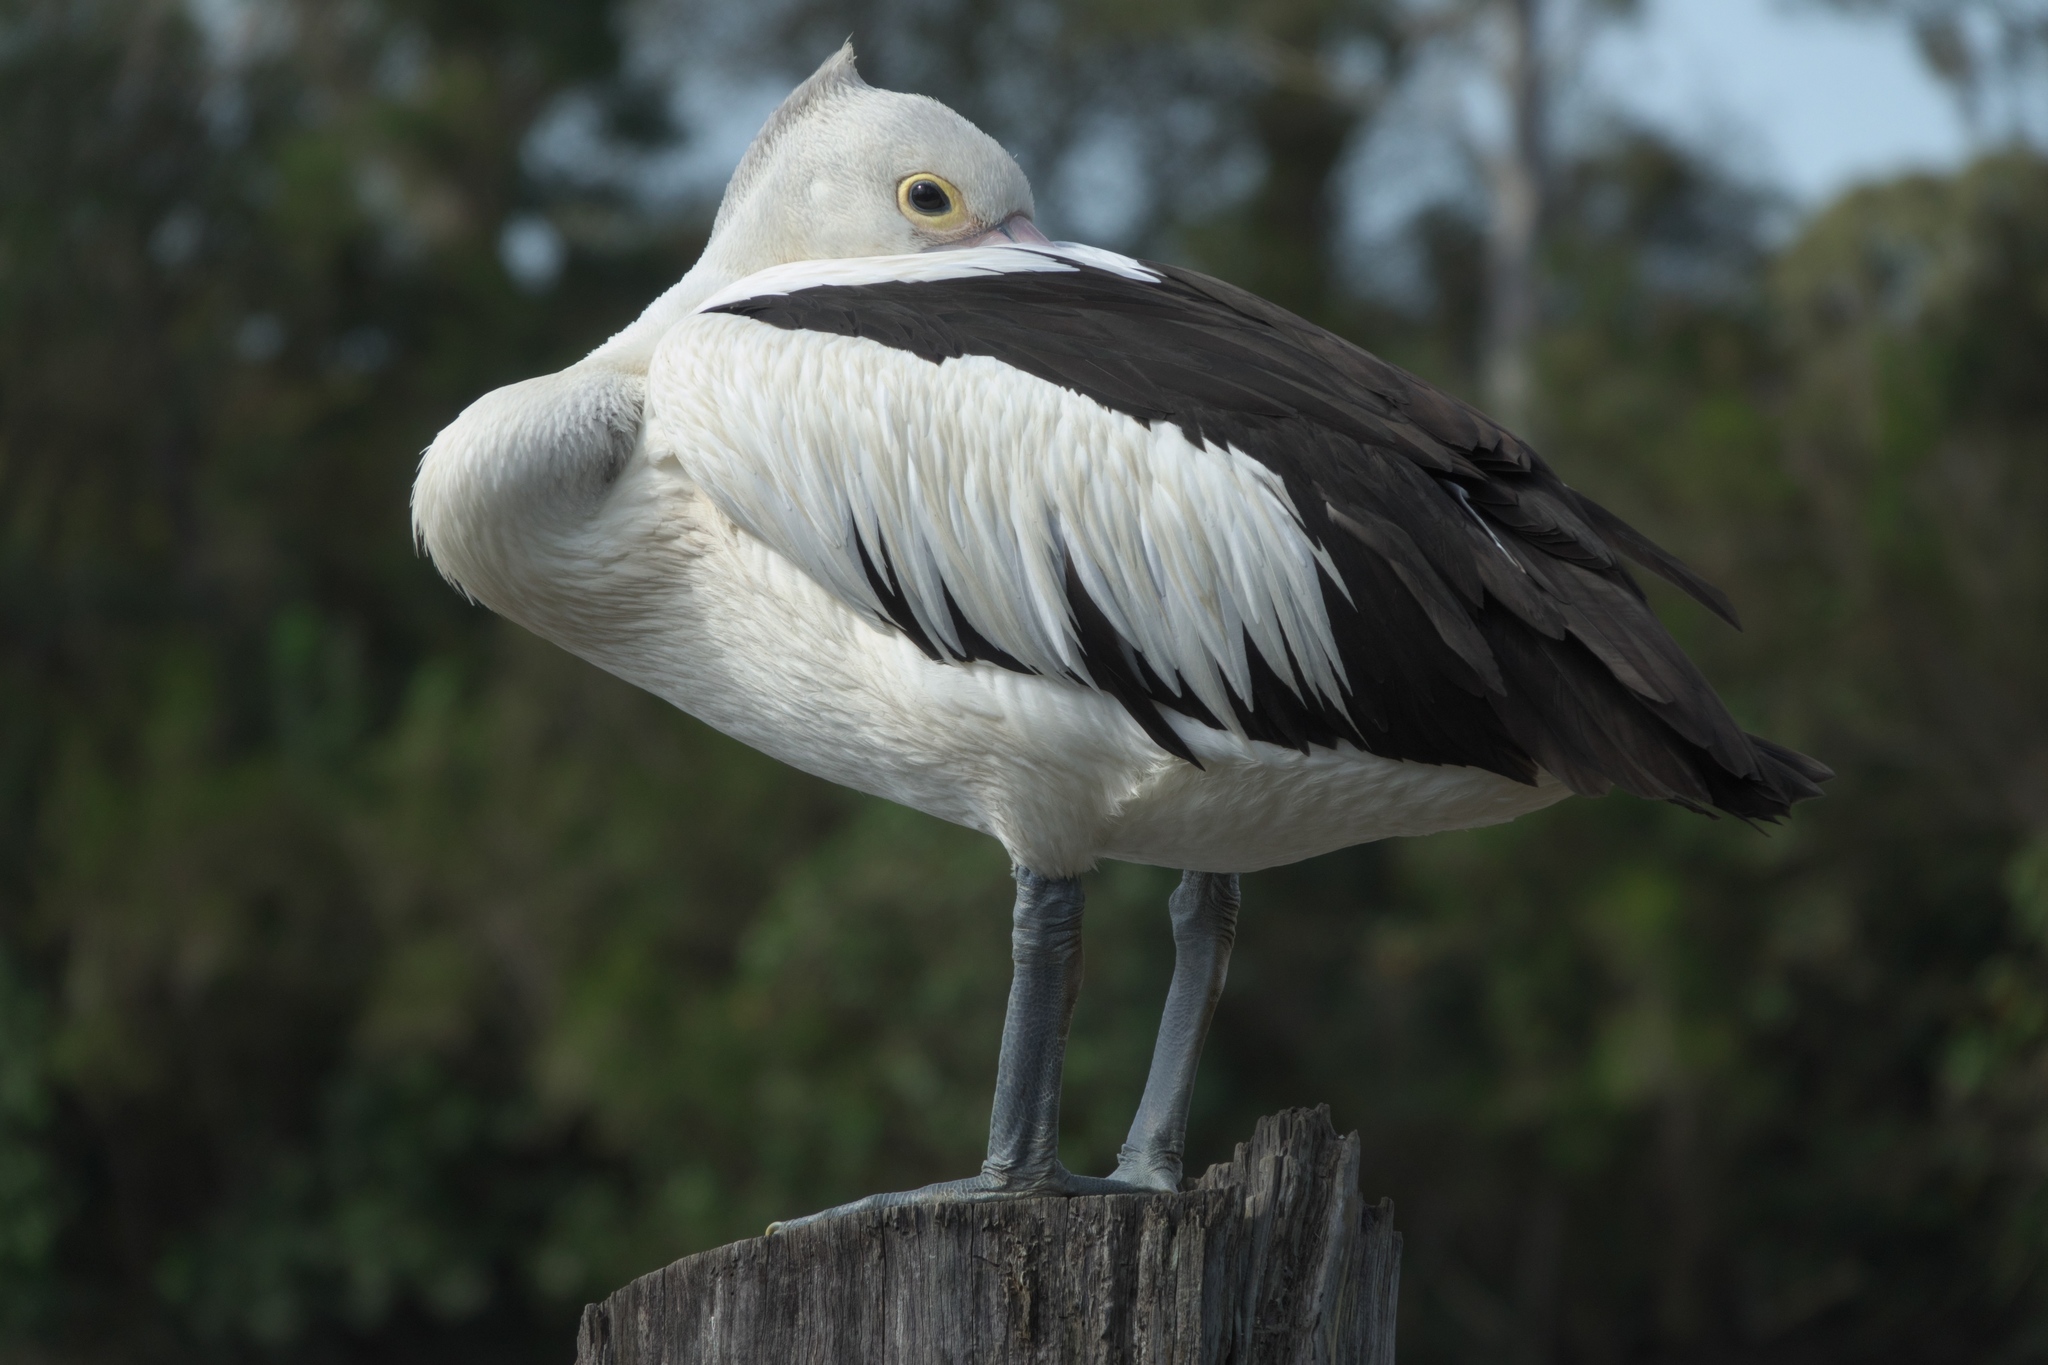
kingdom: Animalia
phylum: Chordata
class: Aves
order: Pelecaniformes
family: Pelecanidae
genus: Pelecanus
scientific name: Pelecanus conspicillatus
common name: Australian pelican
